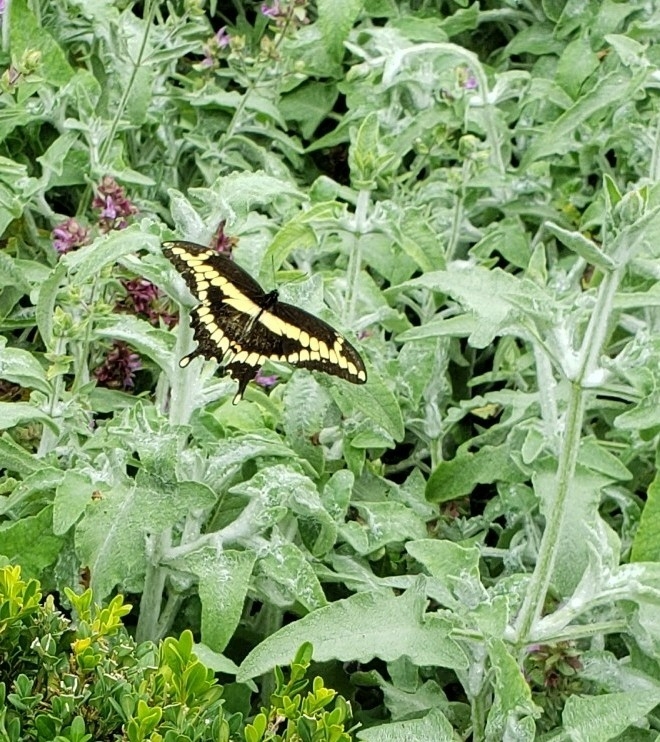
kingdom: Animalia
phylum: Arthropoda
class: Insecta
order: Lepidoptera
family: Papilionidae
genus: Papilio
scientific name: Papilio cresphontes
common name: Giant swallowtail
